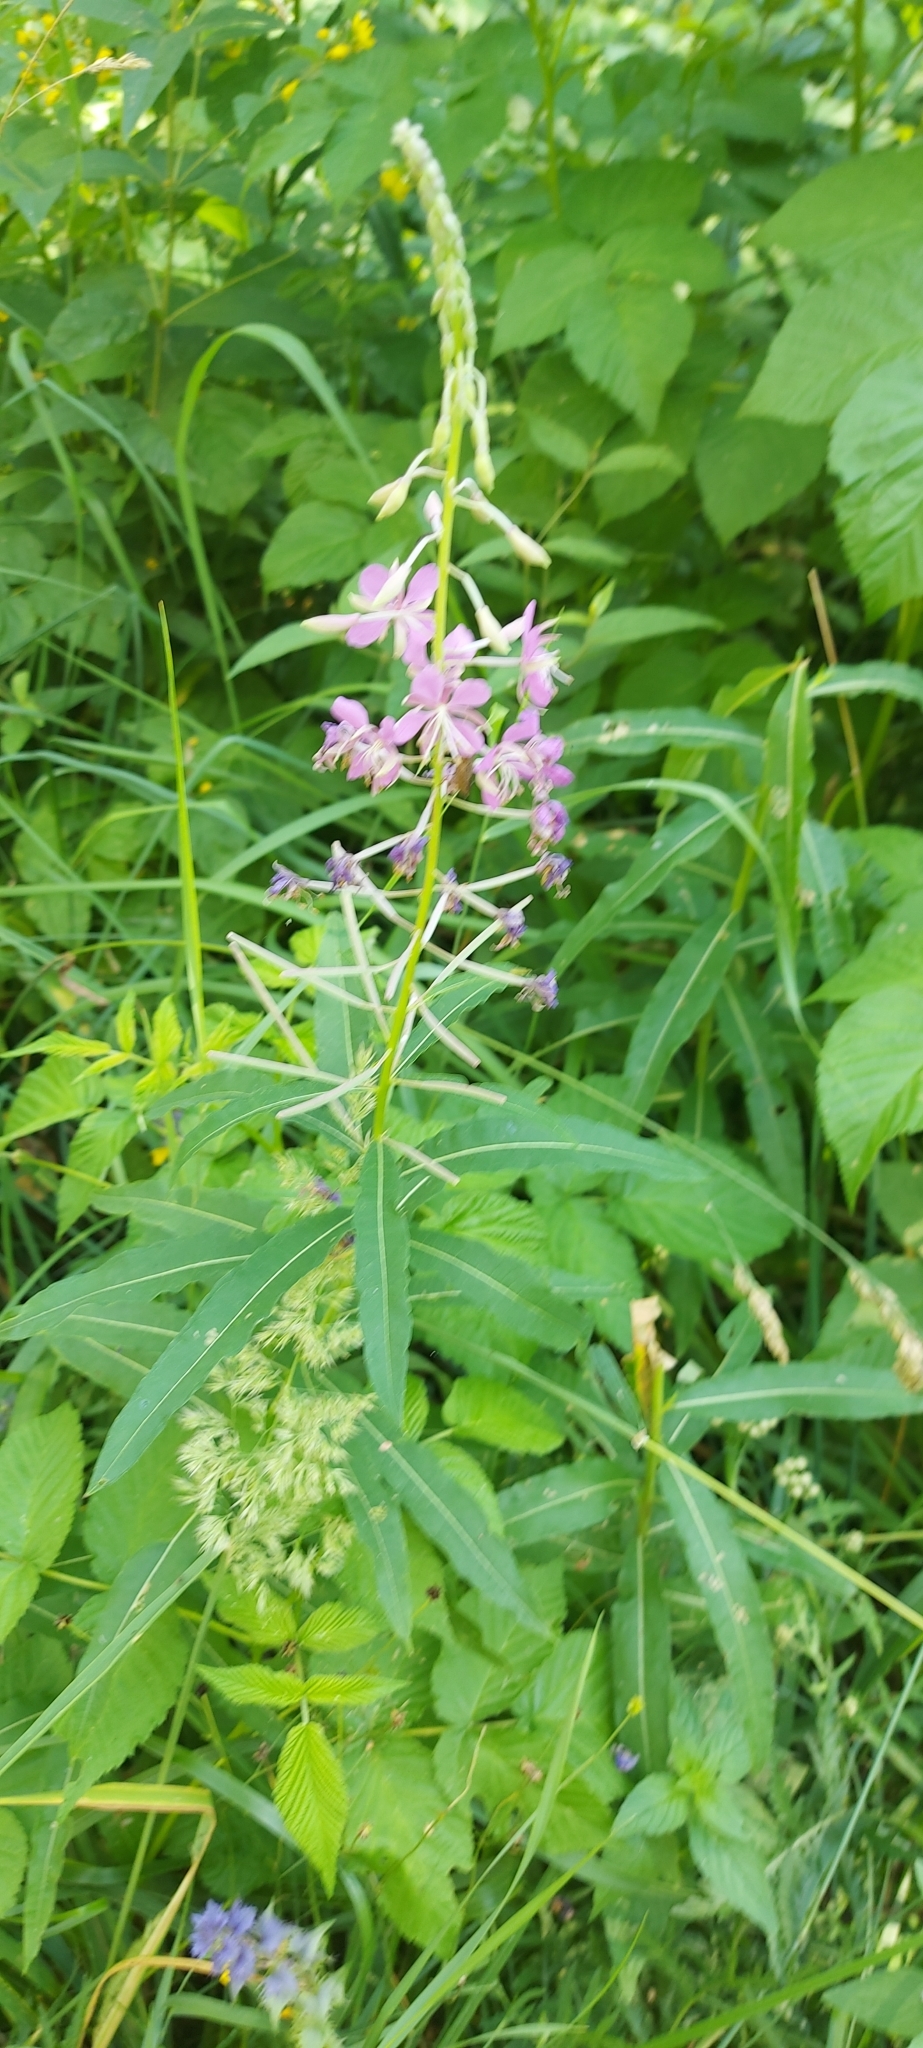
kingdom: Plantae
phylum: Tracheophyta
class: Magnoliopsida
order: Myrtales
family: Onagraceae
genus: Chamaenerion
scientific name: Chamaenerion angustifolium
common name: Fireweed
